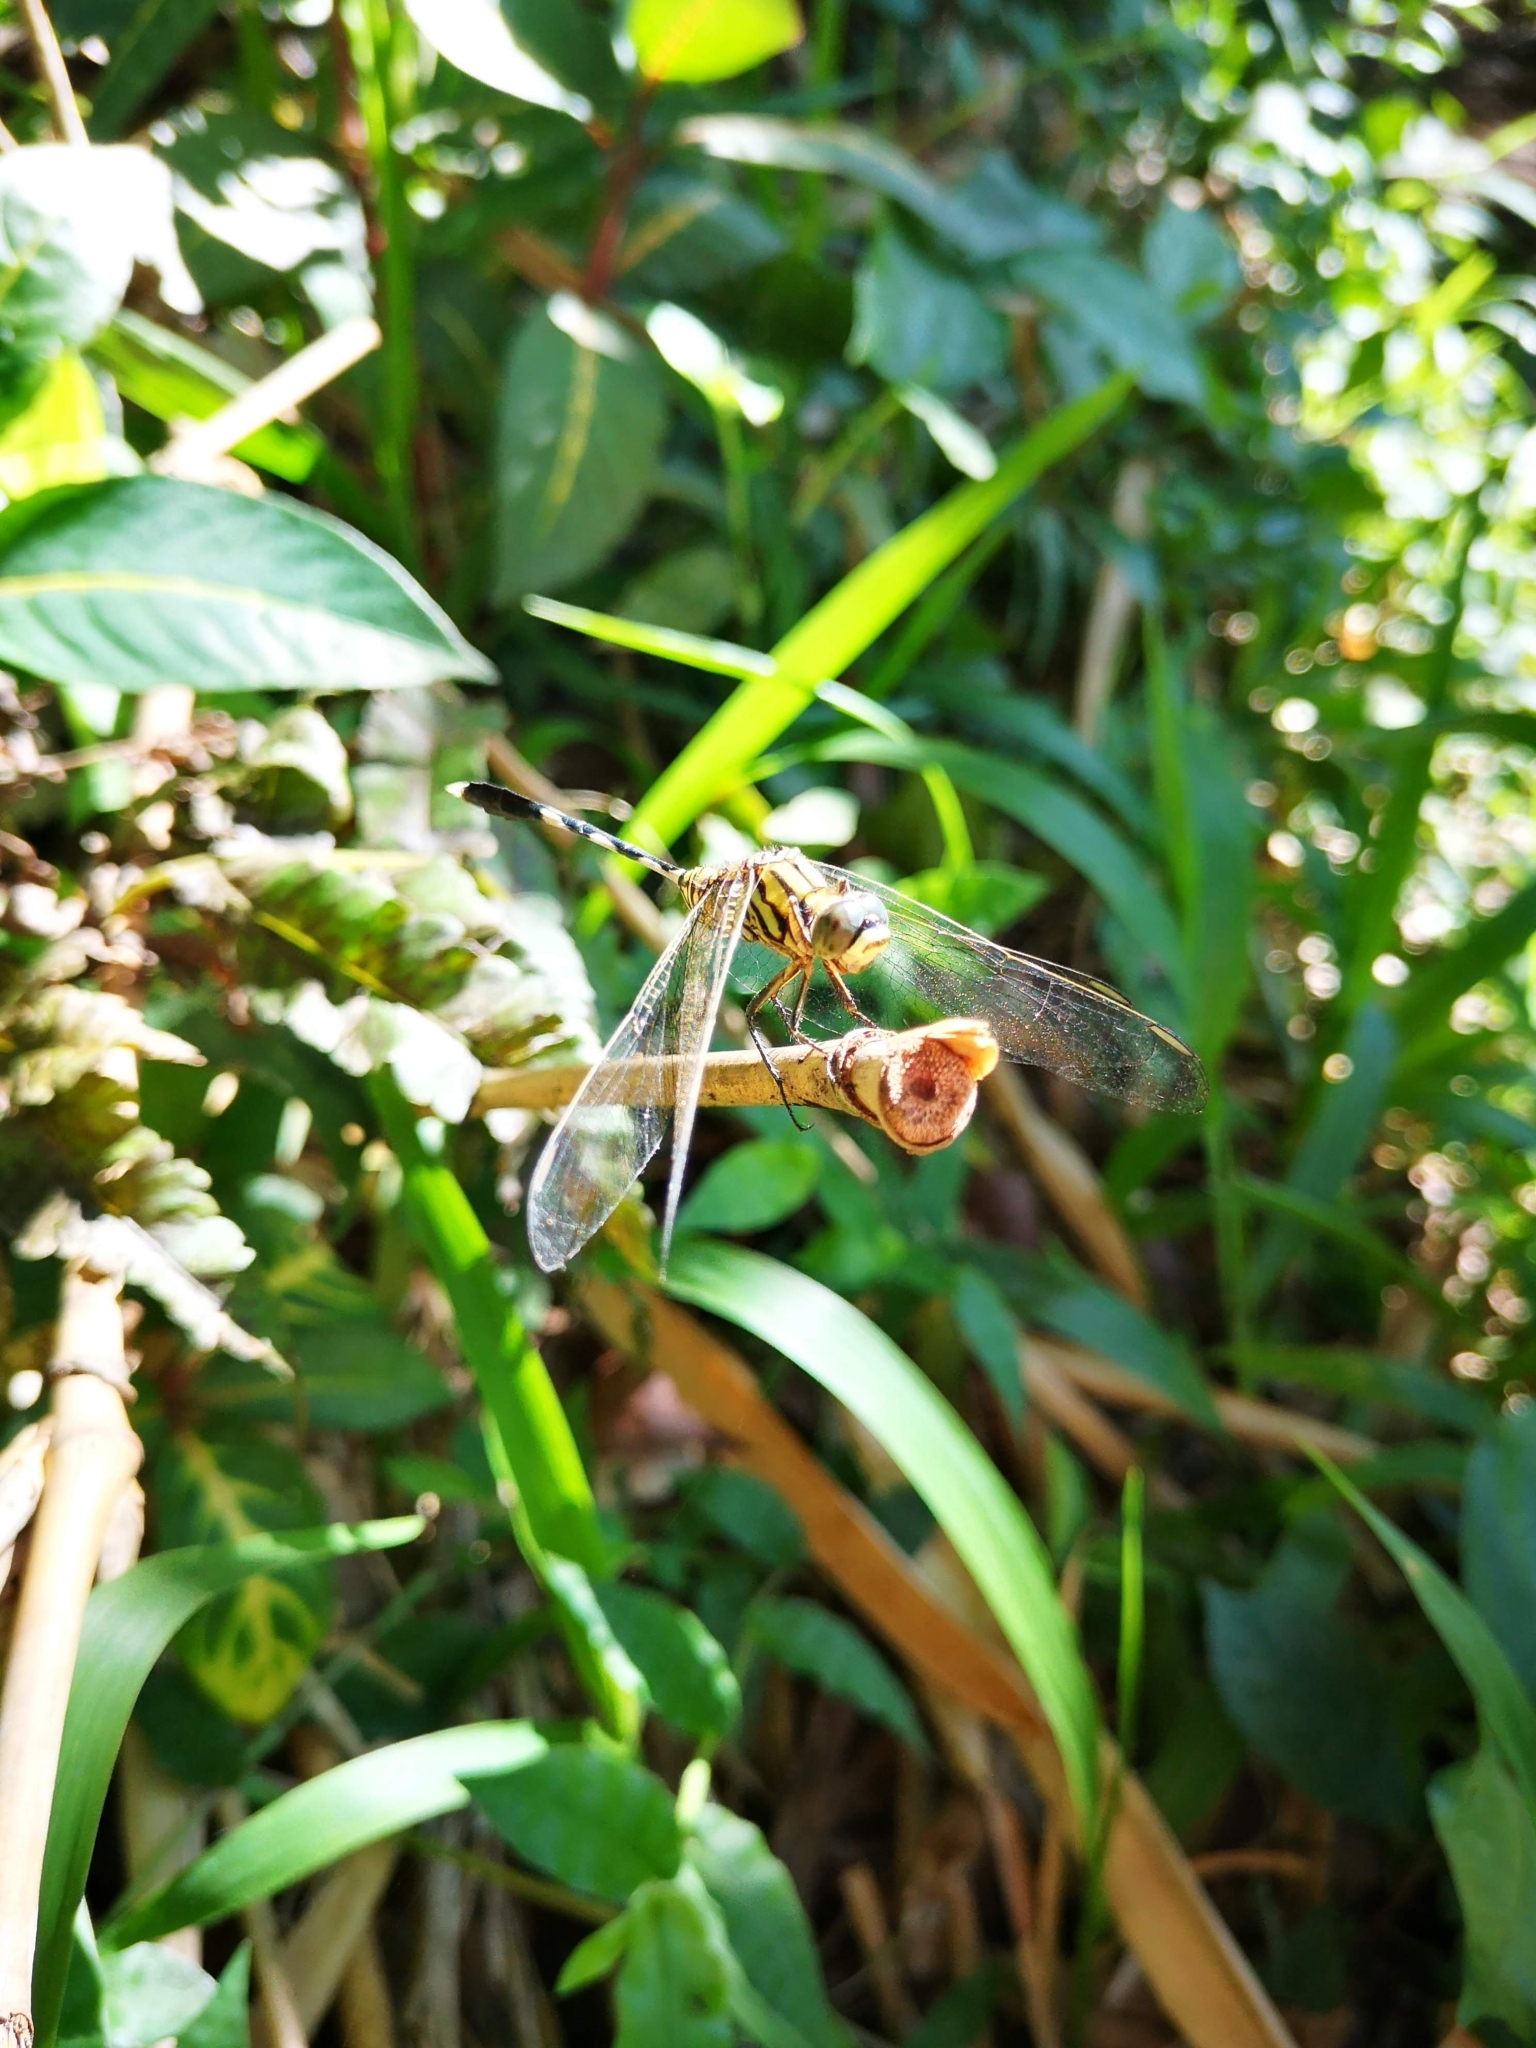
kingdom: Animalia
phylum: Arthropoda
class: Insecta
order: Odonata
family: Libellulidae
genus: Orthetrum
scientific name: Orthetrum sabina
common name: Slender skimmer
